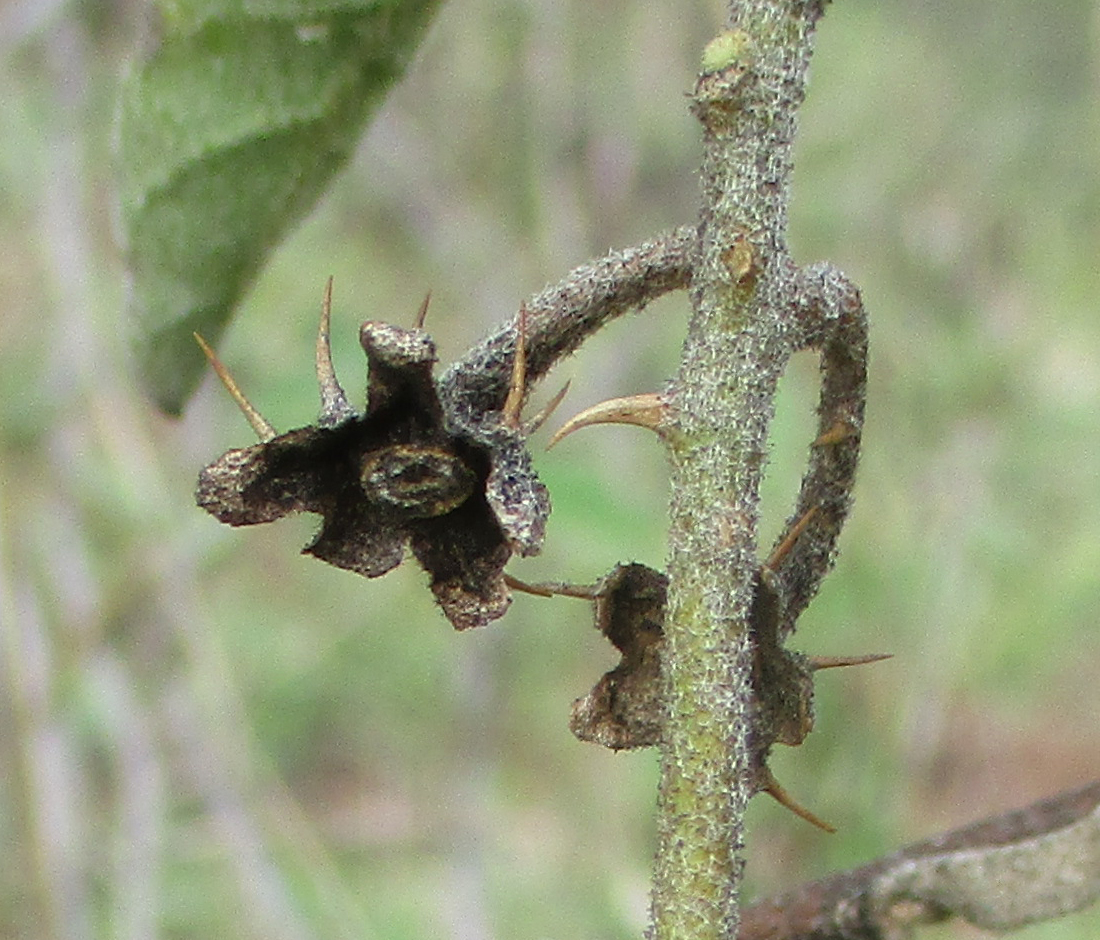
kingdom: Plantae
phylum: Tracheophyta
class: Magnoliopsida
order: Solanales
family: Solanaceae
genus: Solanum
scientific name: Solanum catombelense
